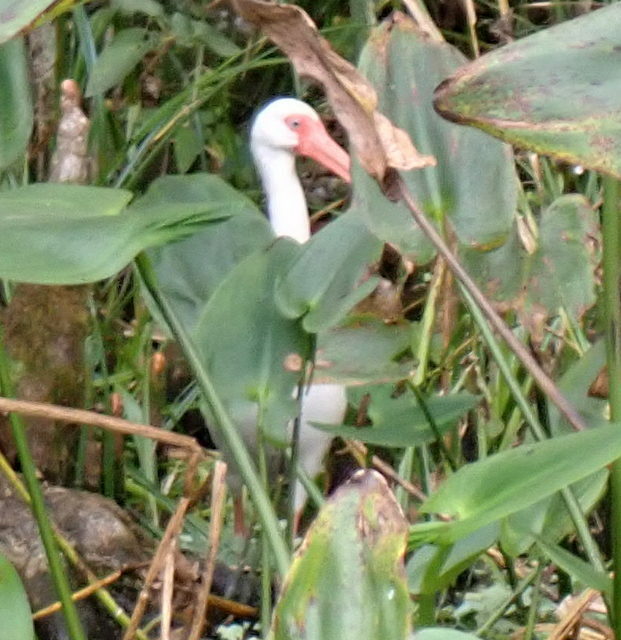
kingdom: Animalia
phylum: Chordata
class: Aves
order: Pelecaniformes
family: Threskiornithidae
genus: Eudocimus
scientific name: Eudocimus albus
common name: White ibis
